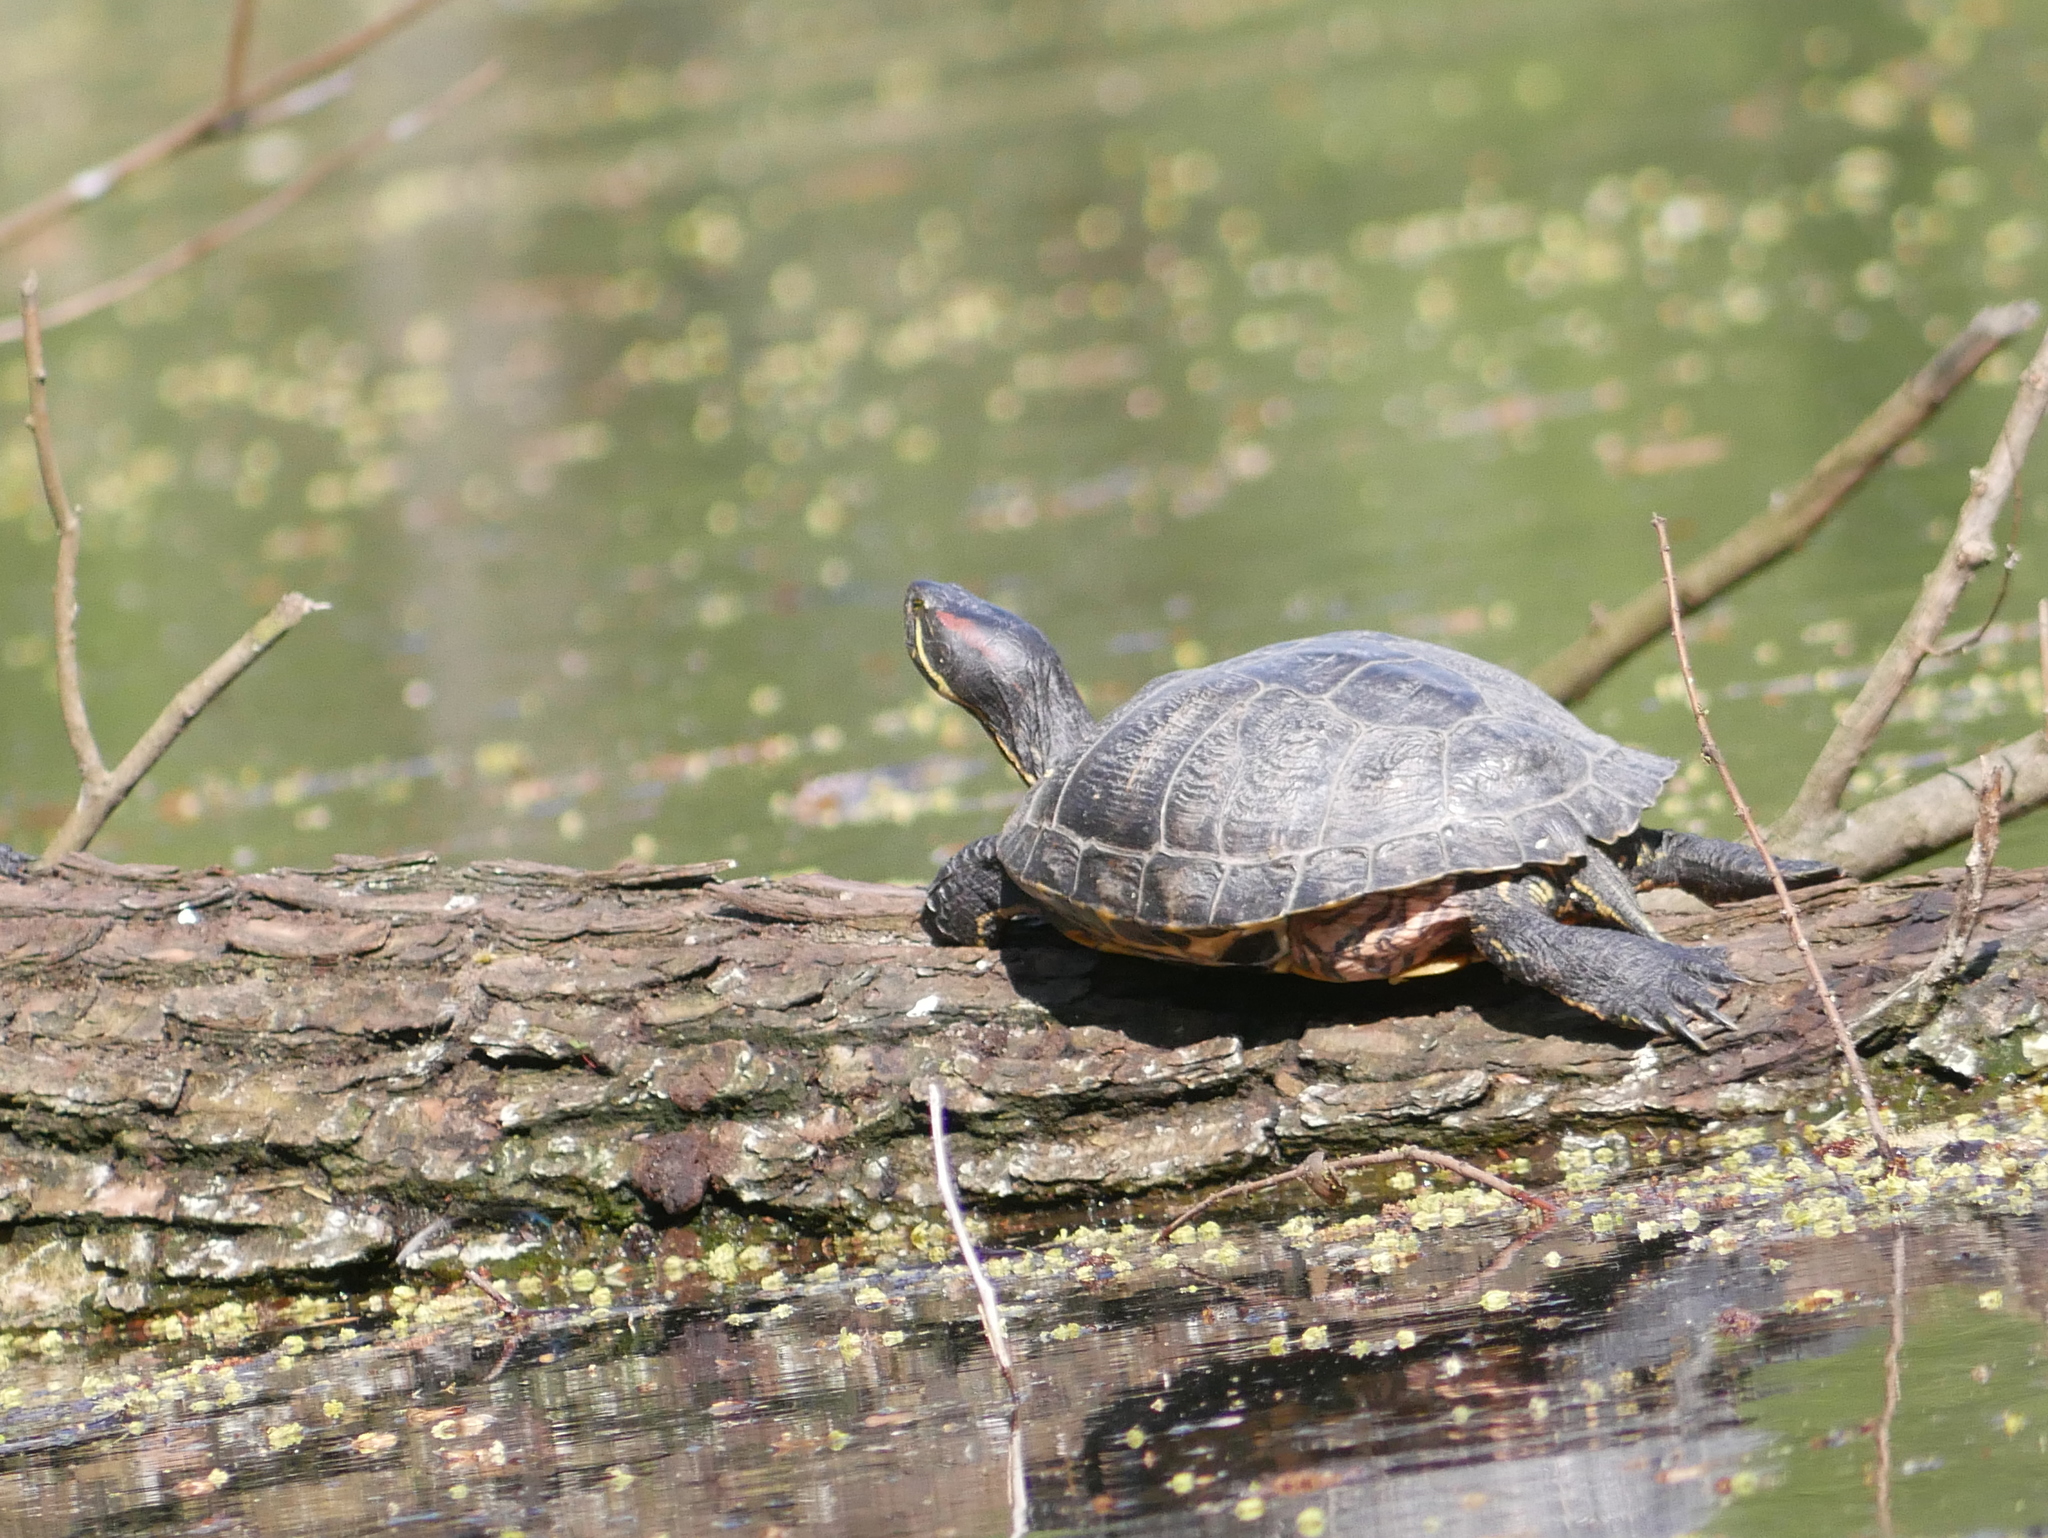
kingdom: Animalia
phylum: Chordata
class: Testudines
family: Emydidae
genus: Trachemys
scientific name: Trachemys scripta
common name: Slider
